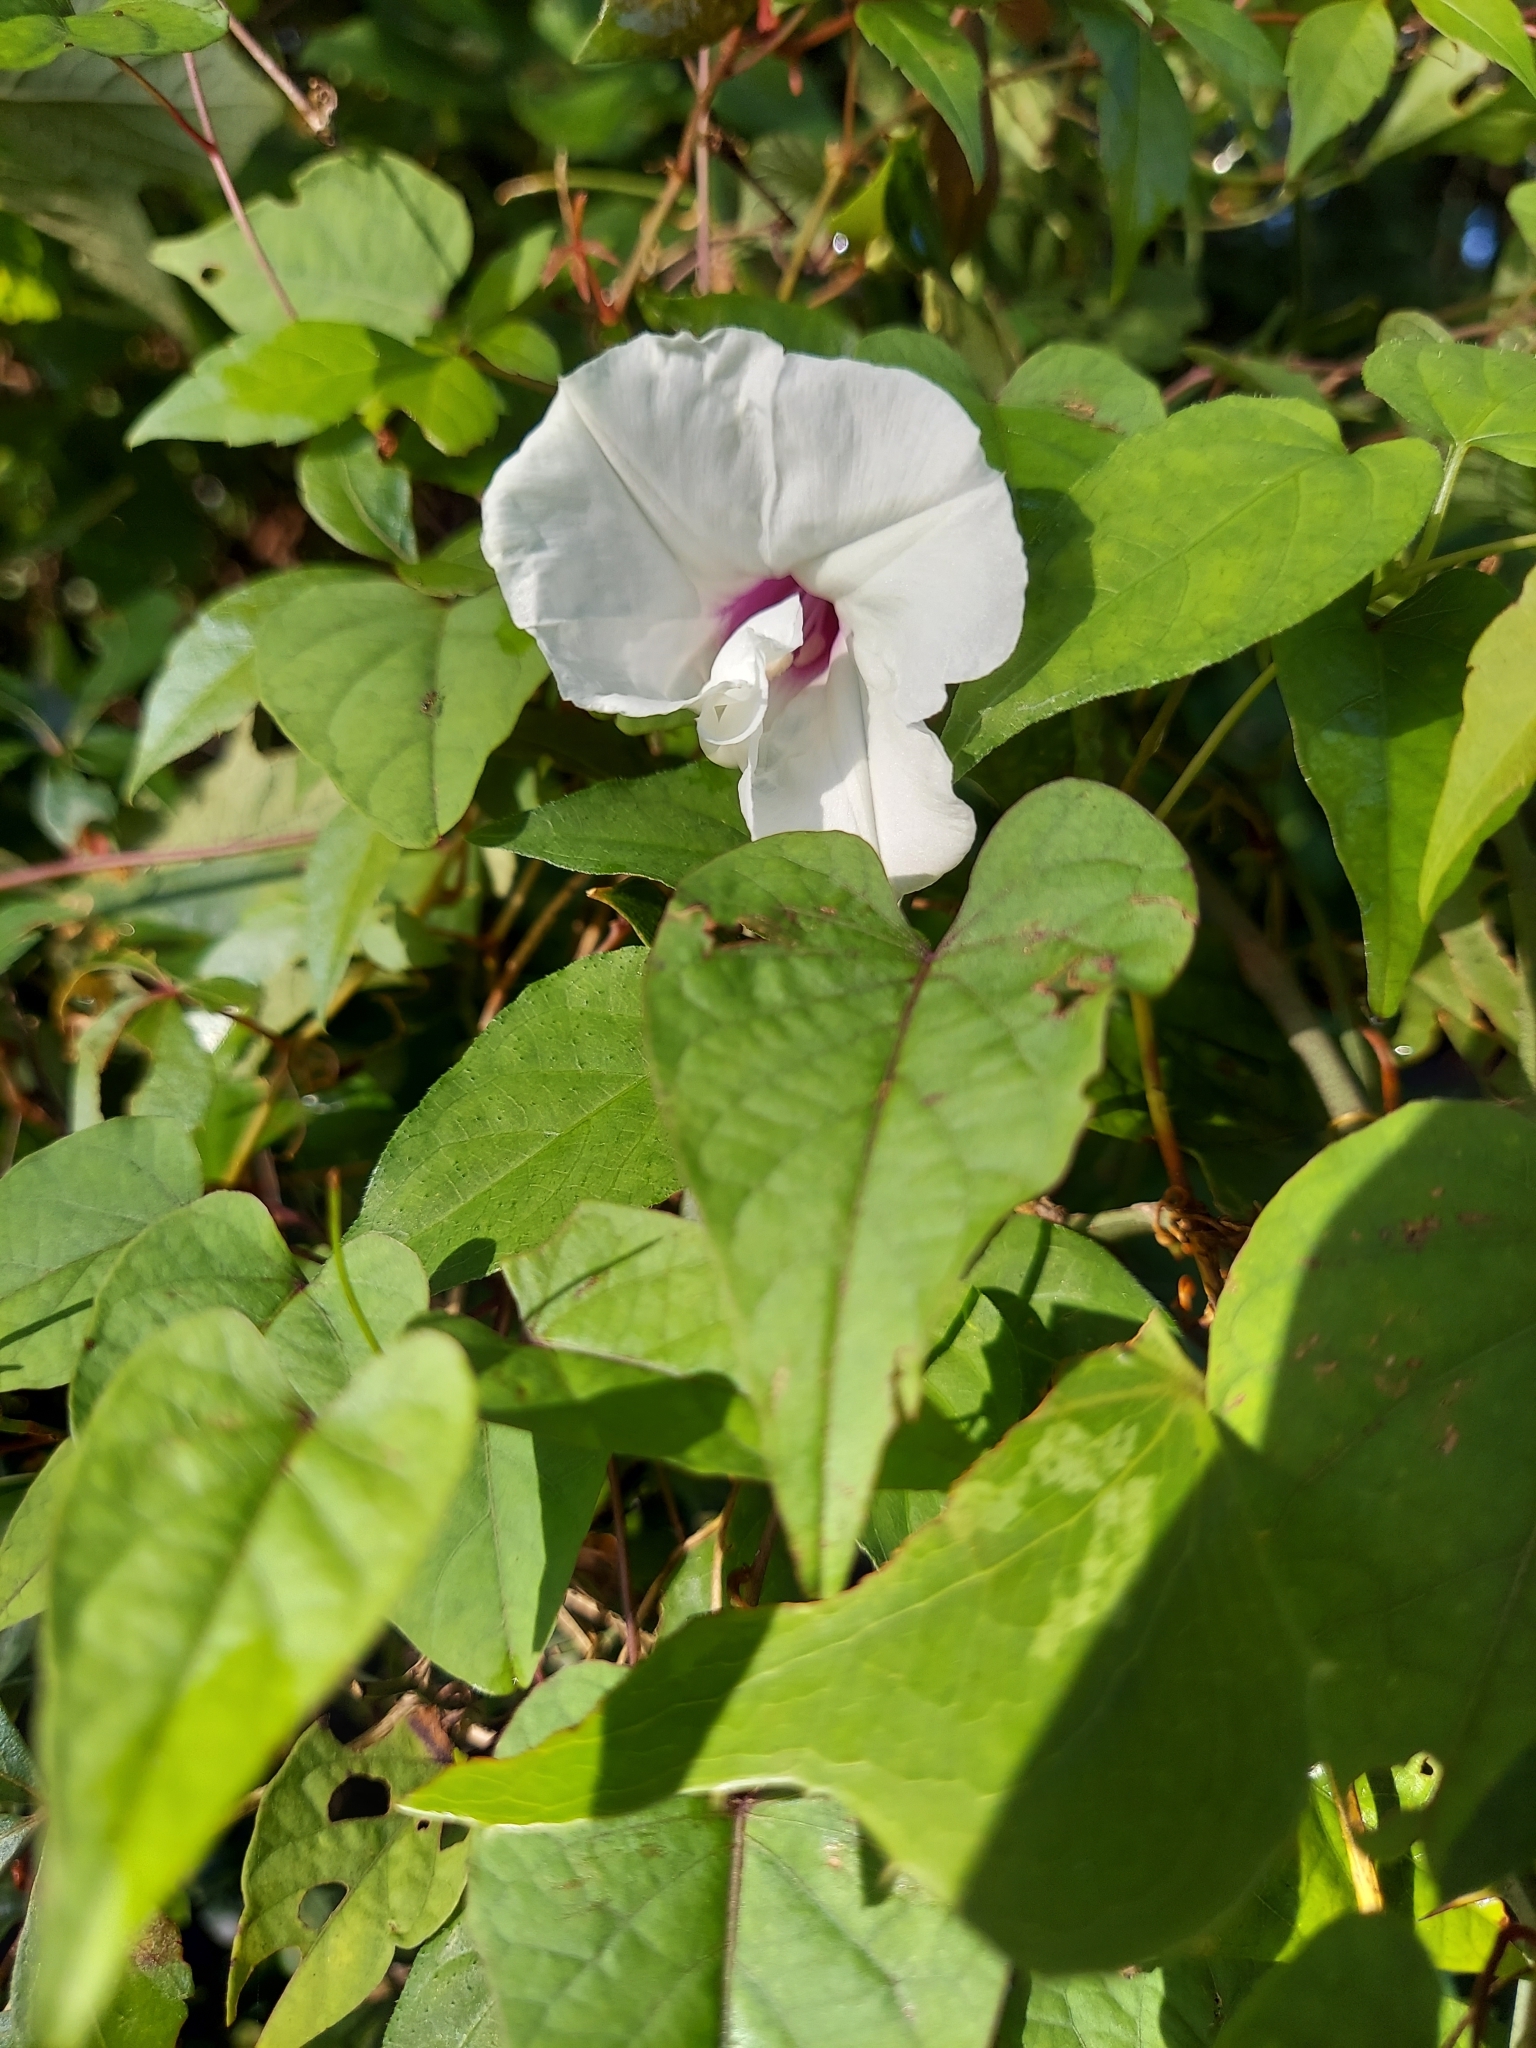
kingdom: Plantae
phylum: Tracheophyta
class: Magnoliopsida
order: Solanales
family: Convolvulaceae
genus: Ipomoea
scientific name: Ipomoea pandurata
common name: Man-of-the-earth
